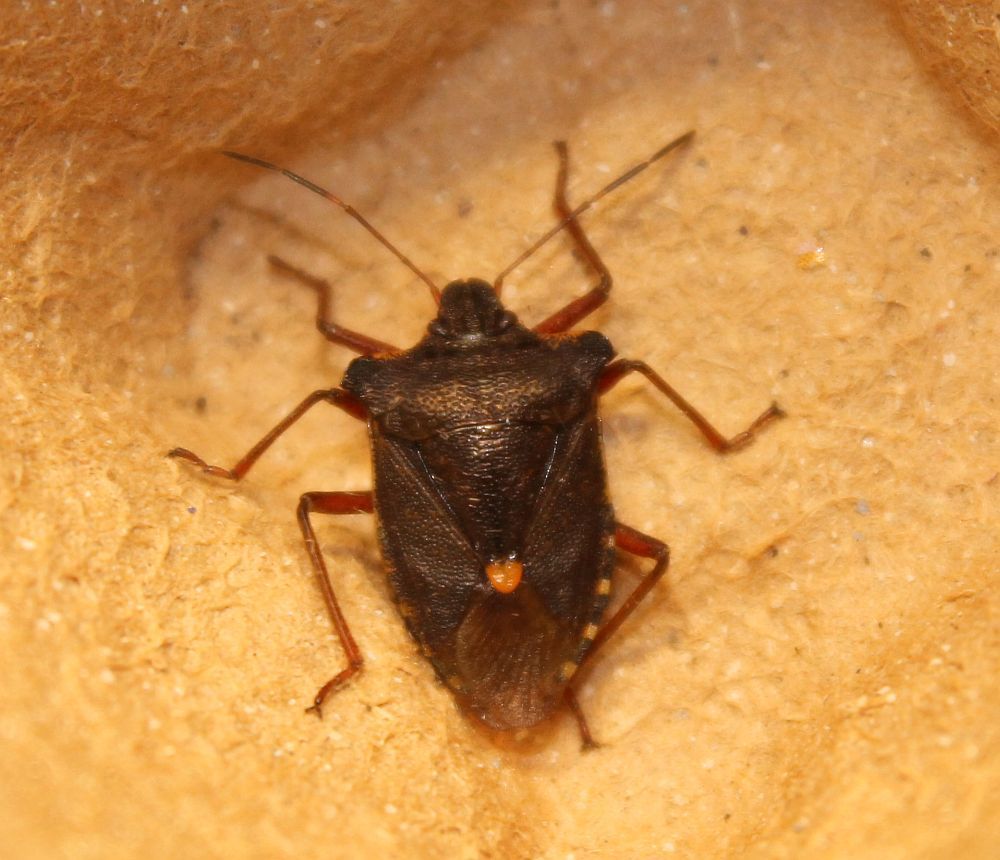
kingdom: Animalia
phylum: Arthropoda
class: Insecta
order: Hemiptera
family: Pentatomidae
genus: Pentatoma
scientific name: Pentatoma rufipes
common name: Forest bug
